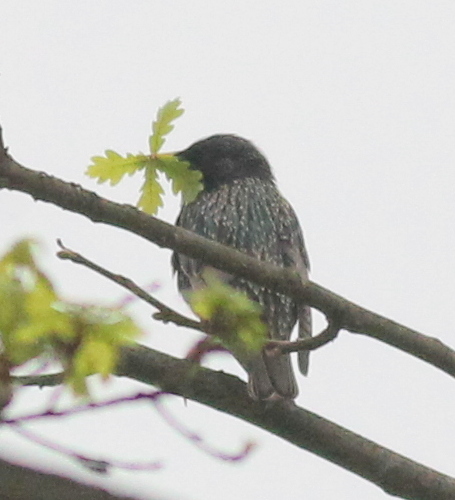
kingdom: Animalia
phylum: Chordata
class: Aves
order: Passeriformes
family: Sturnidae
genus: Sturnus
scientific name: Sturnus vulgaris
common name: Common starling
